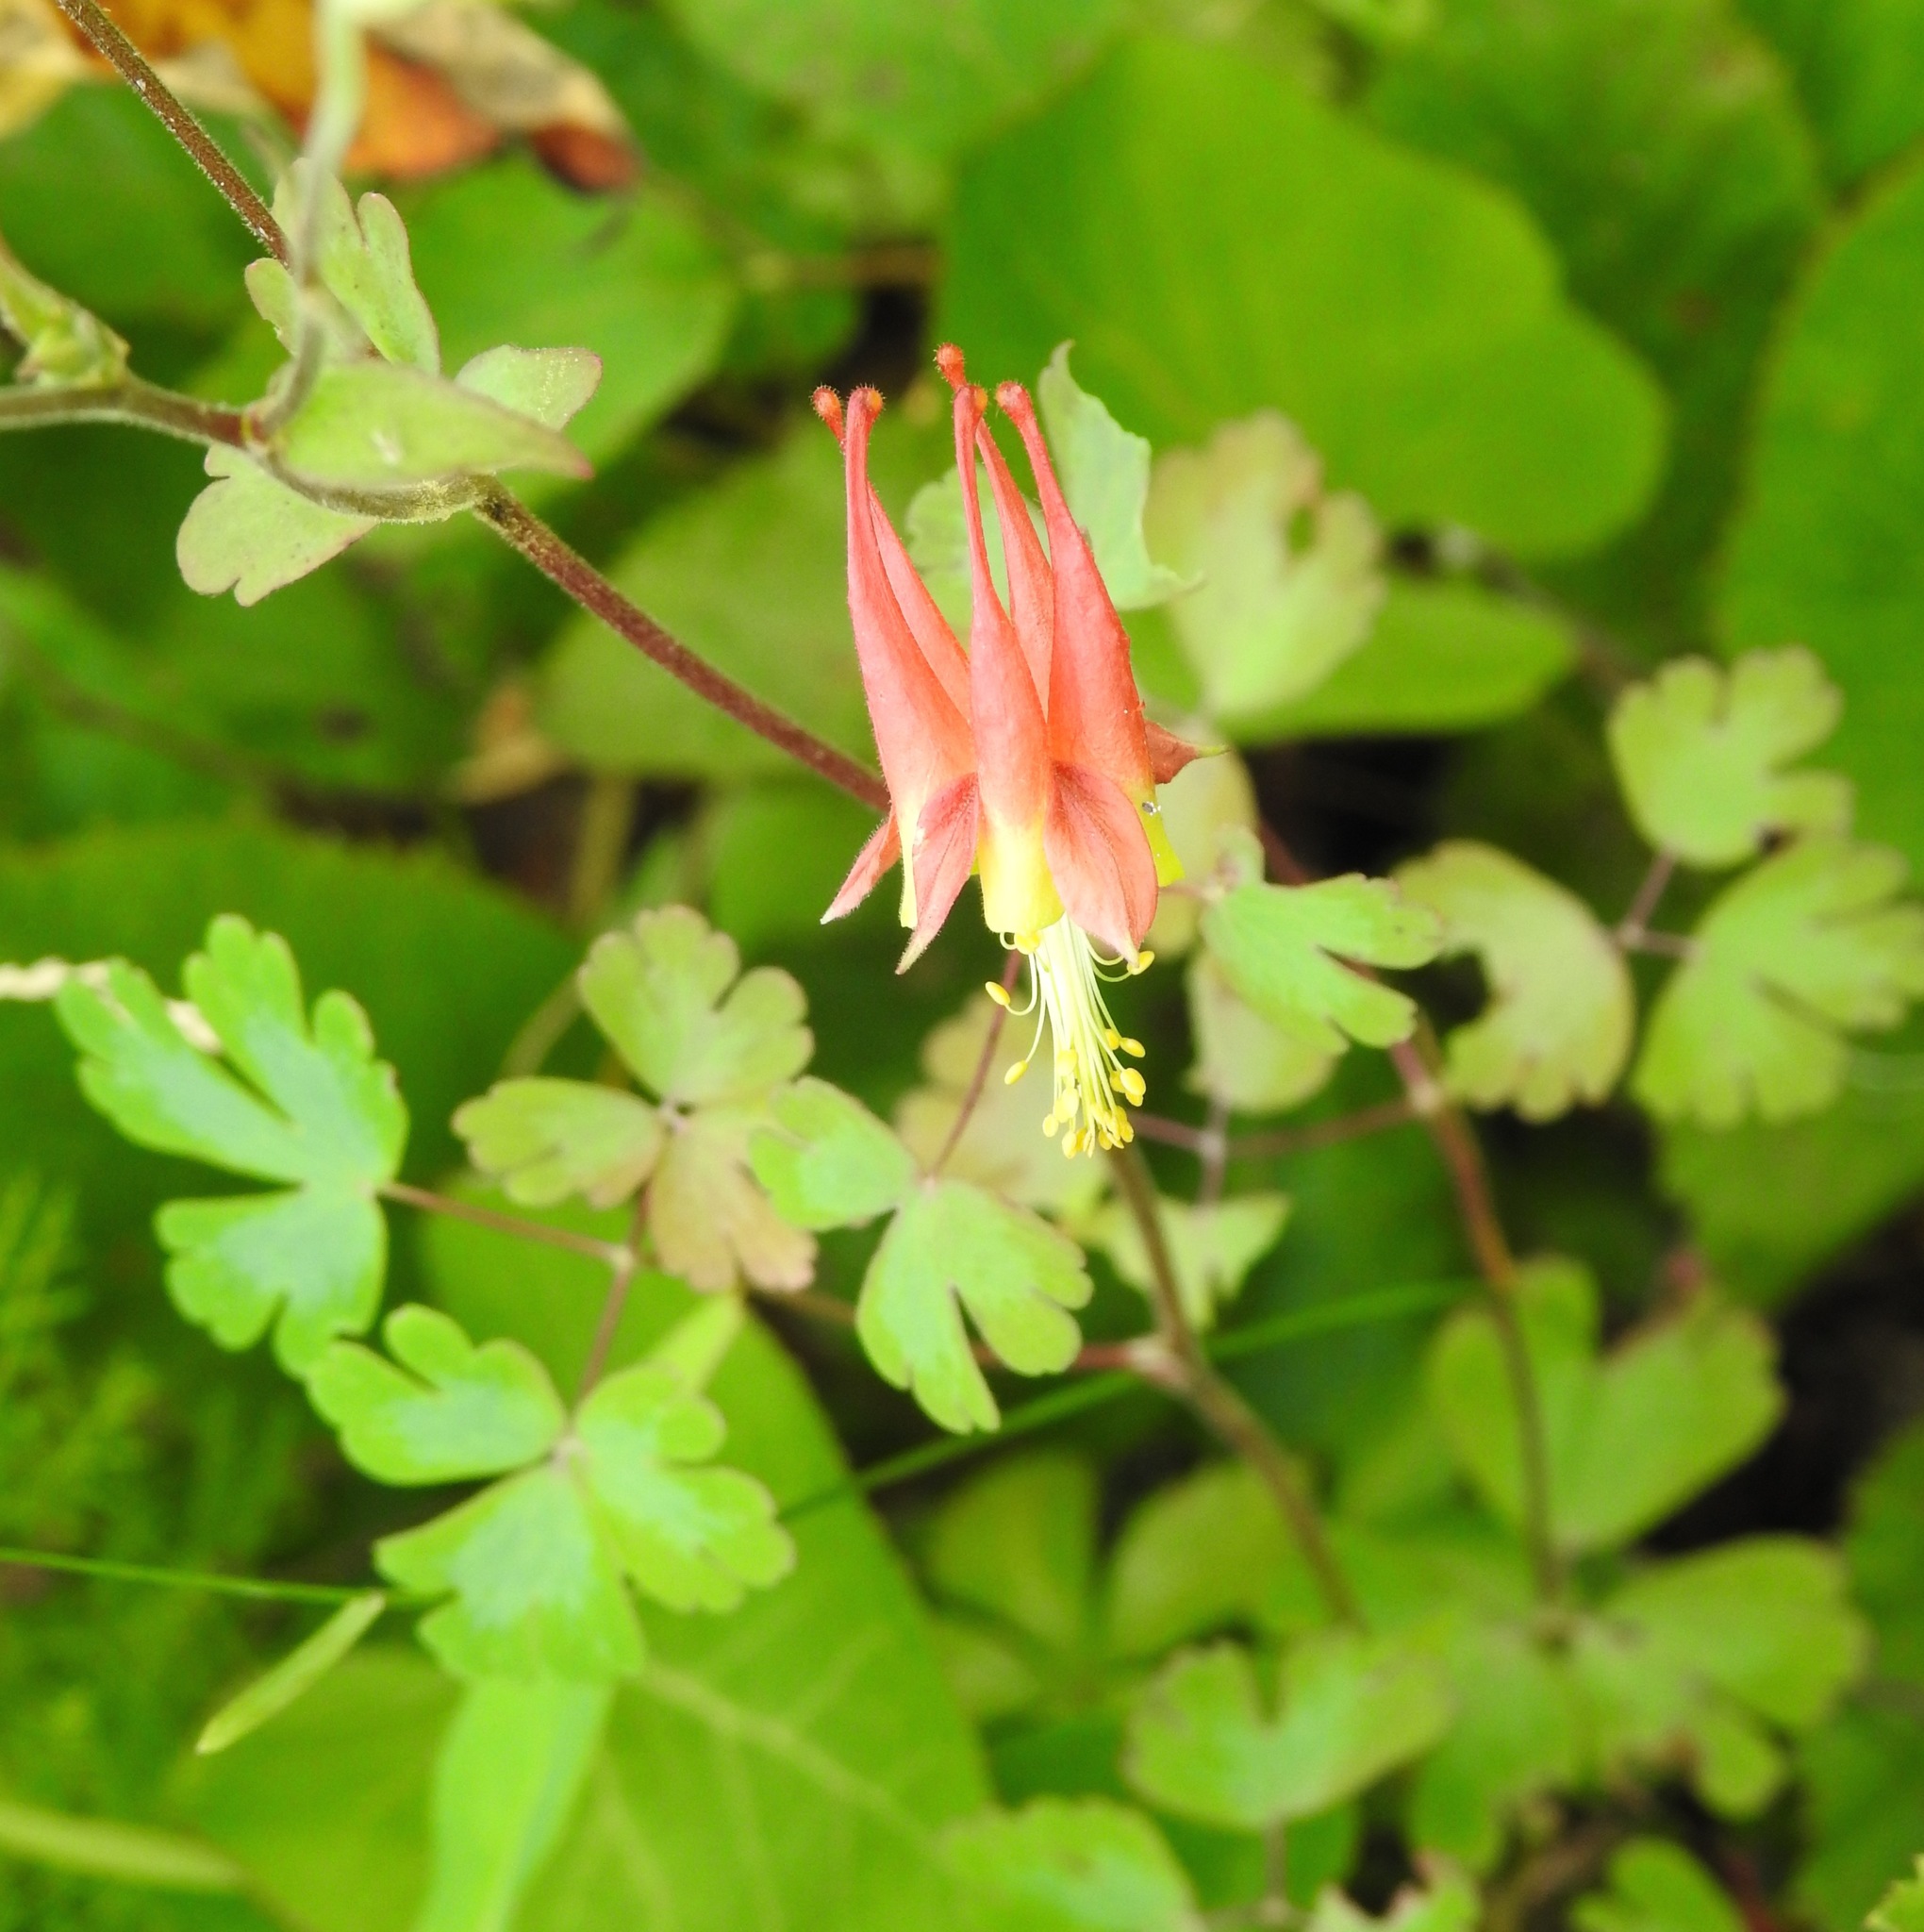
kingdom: Plantae
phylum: Tracheophyta
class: Magnoliopsida
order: Ranunculales
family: Ranunculaceae
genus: Aquilegia
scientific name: Aquilegia canadensis
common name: American columbine
